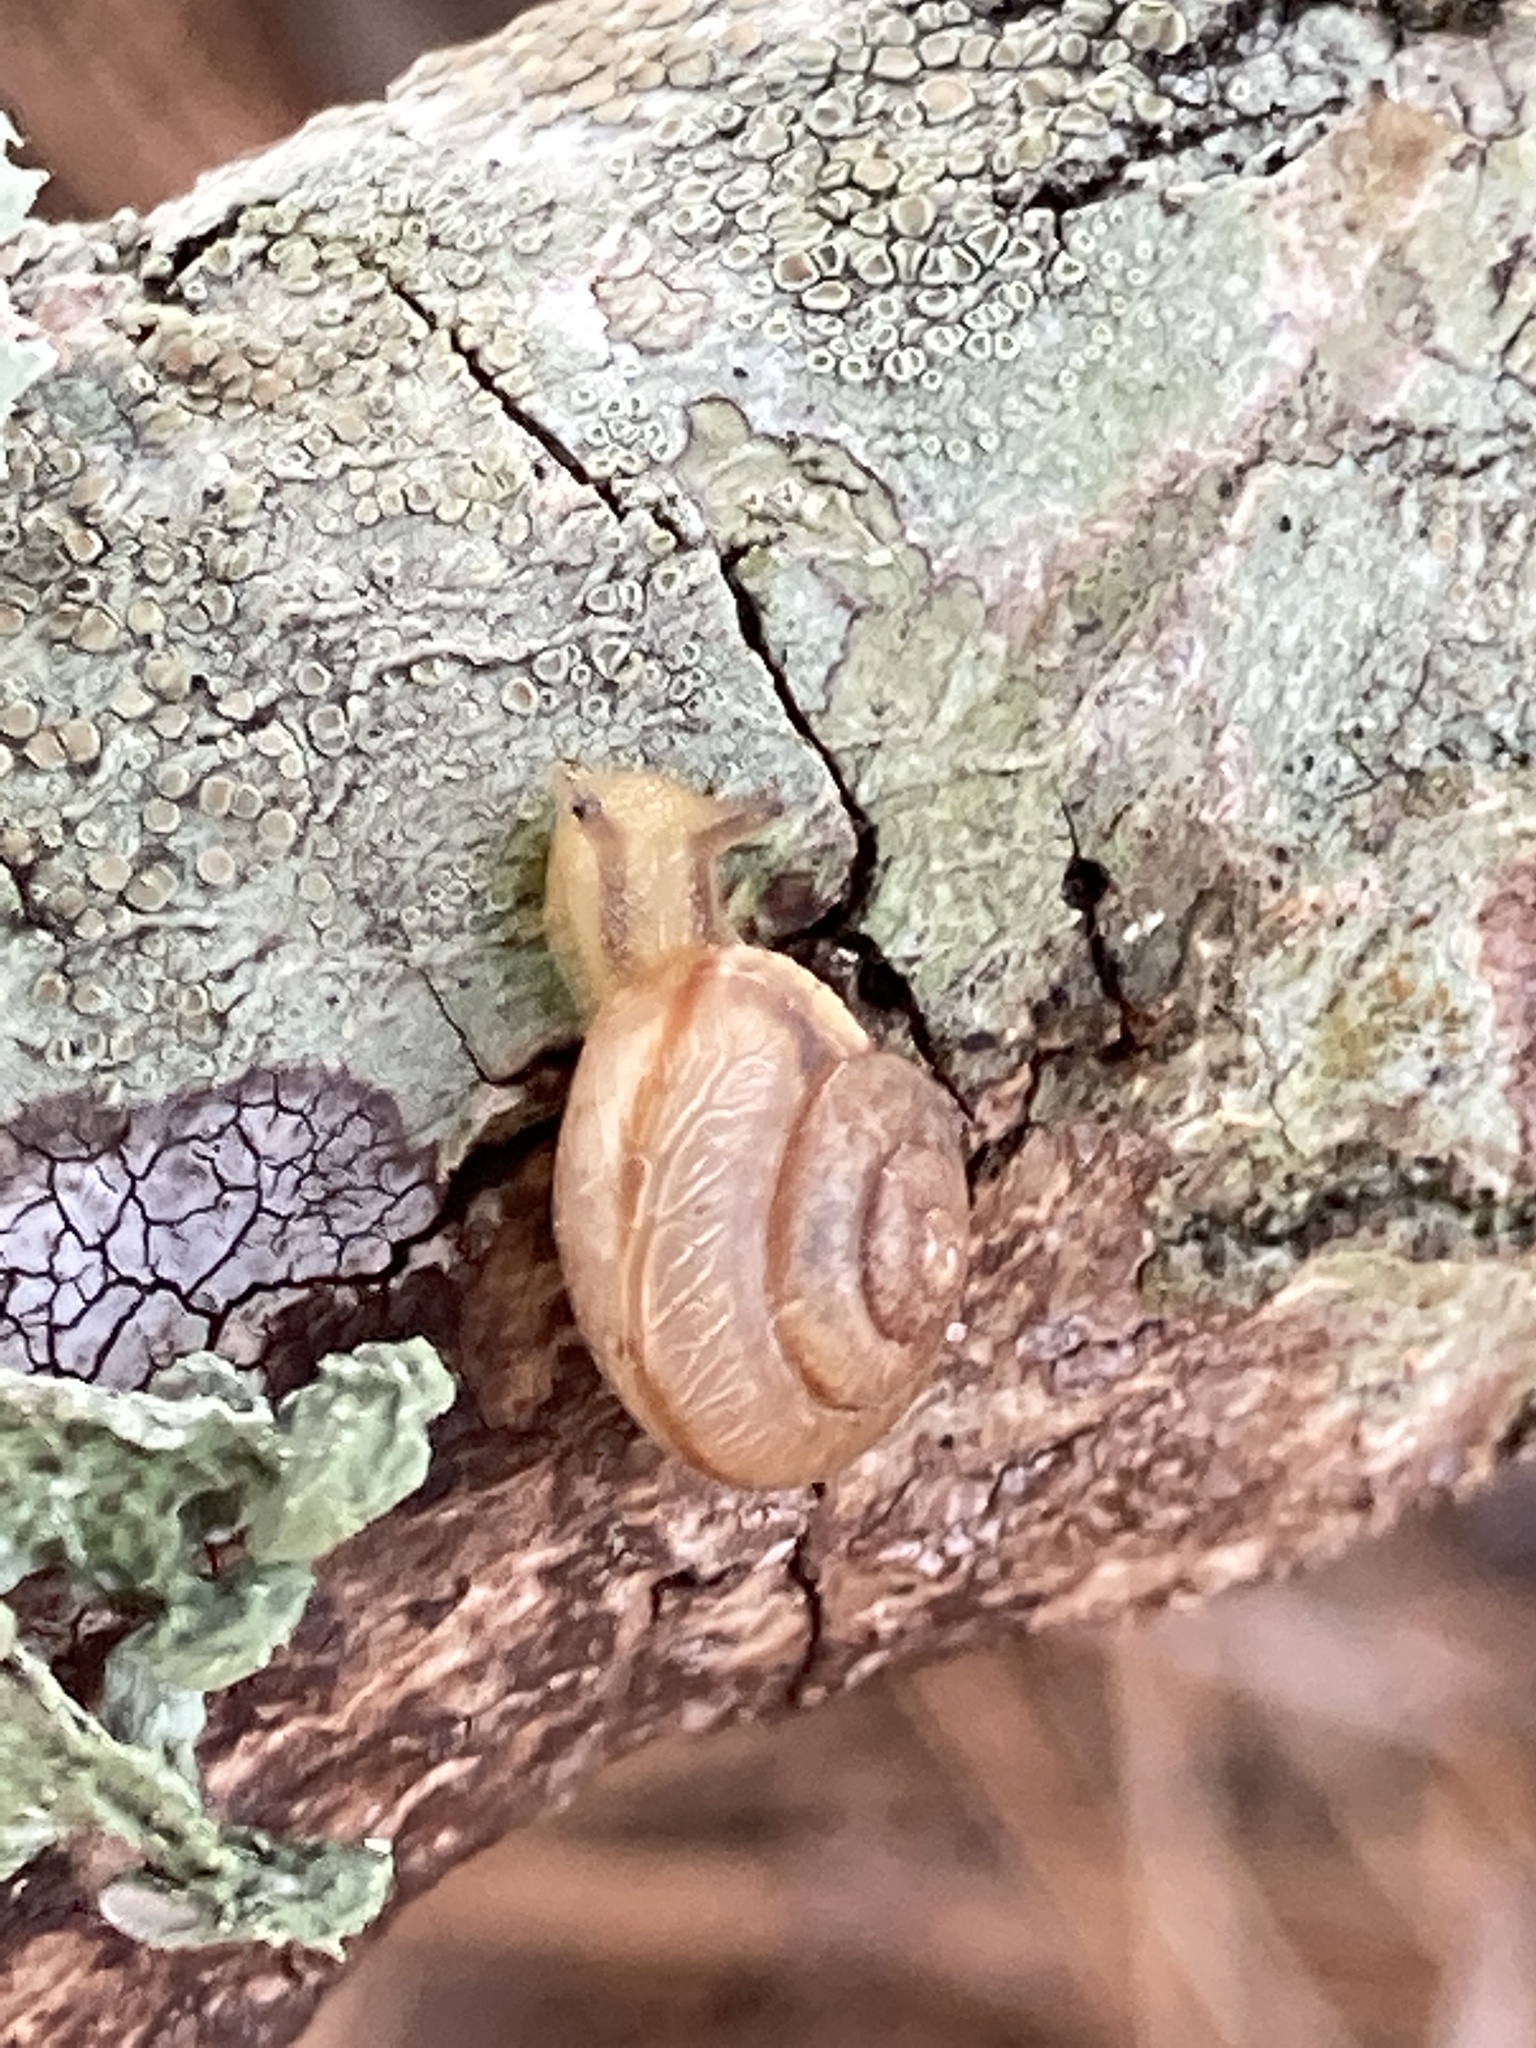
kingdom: Animalia
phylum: Mollusca
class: Gastropoda
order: Stylommatophora
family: Camaenidae
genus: Bradybaena
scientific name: Bradybaena similaris
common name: Asian trampsnail
